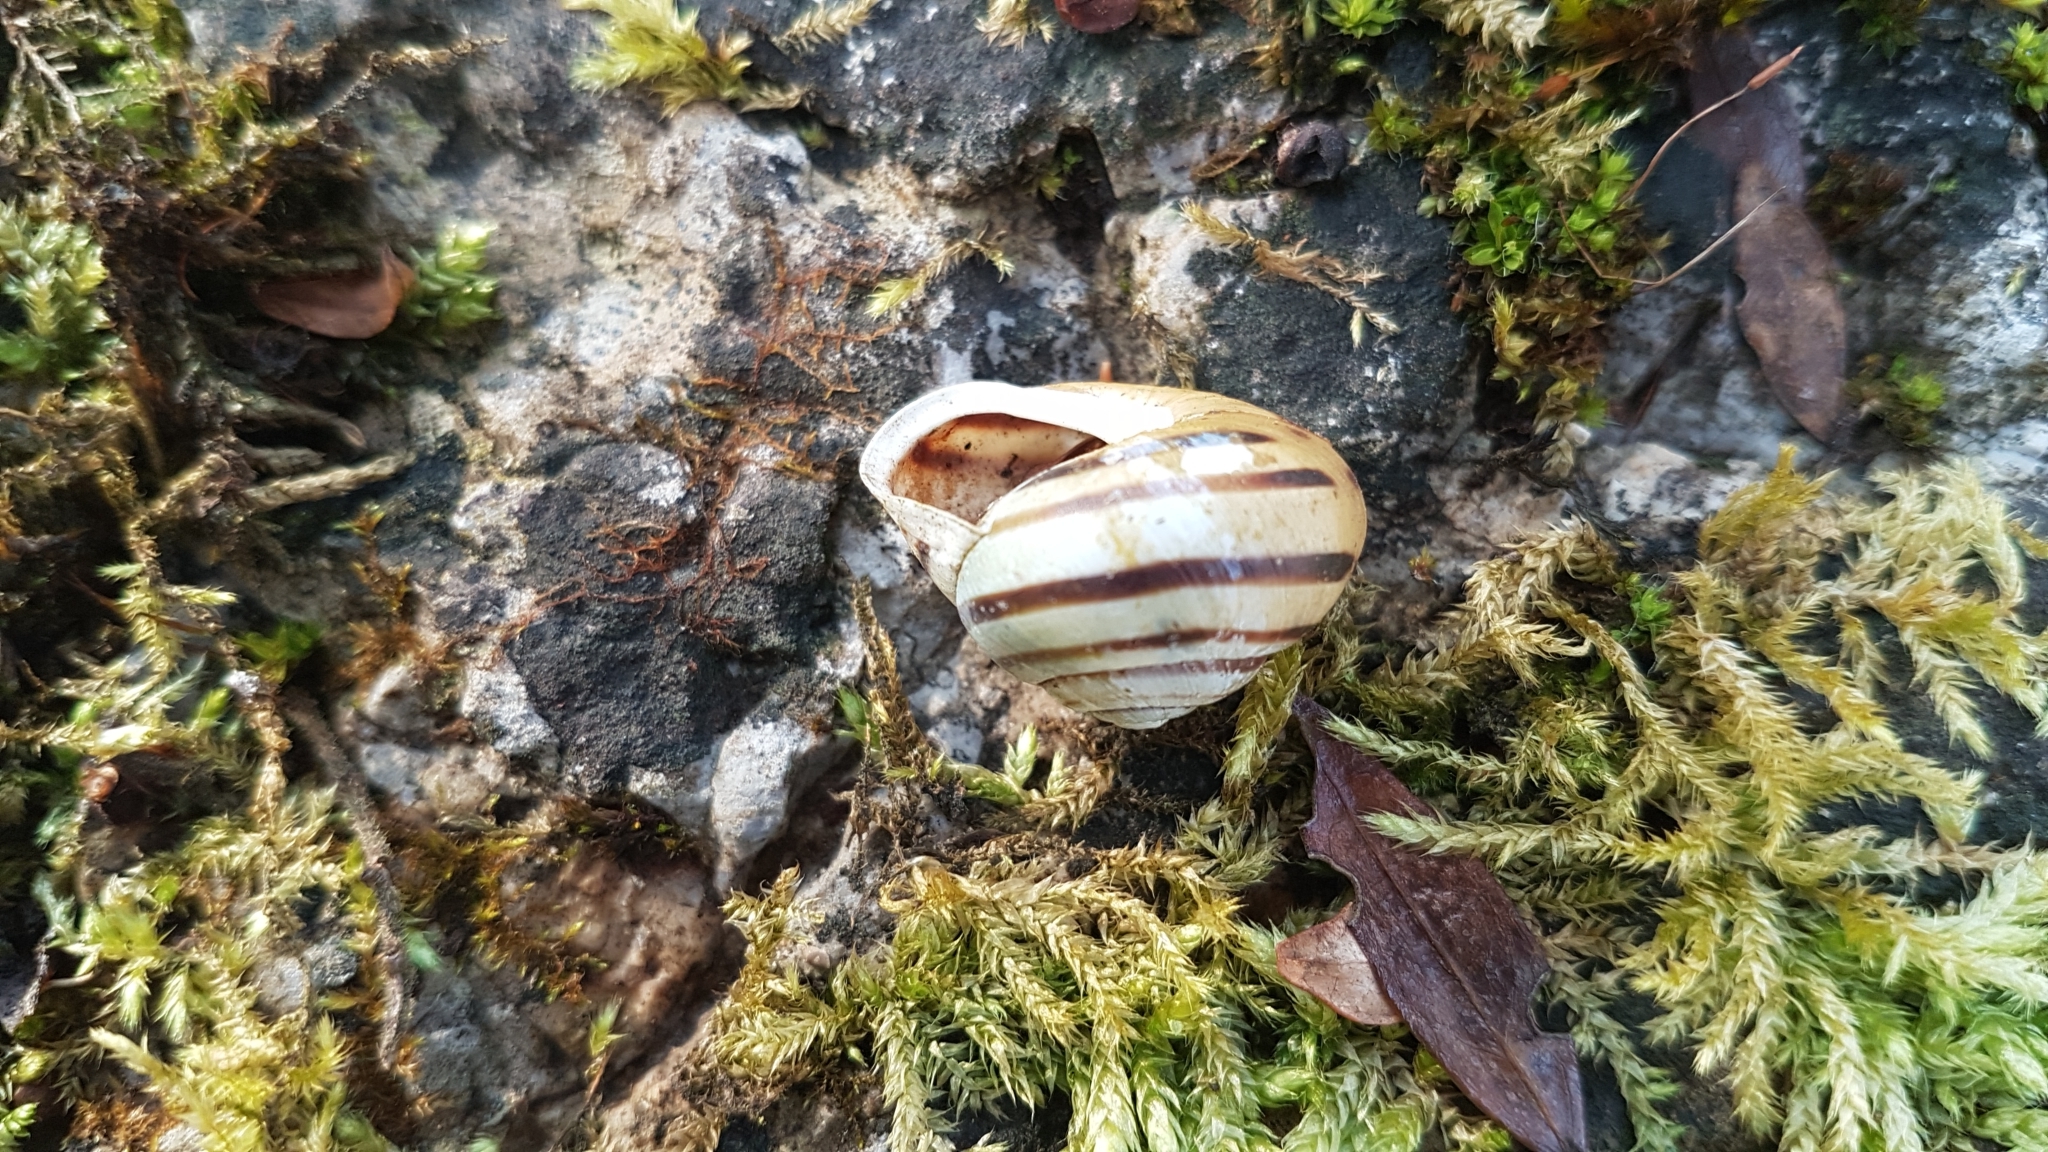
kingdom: Animalia
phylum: Mollusca
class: Gastropoda
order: Stylommatophora
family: Helicidae
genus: Cepaea
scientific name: Cepaea hortensis
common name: White-lip gardensnail
